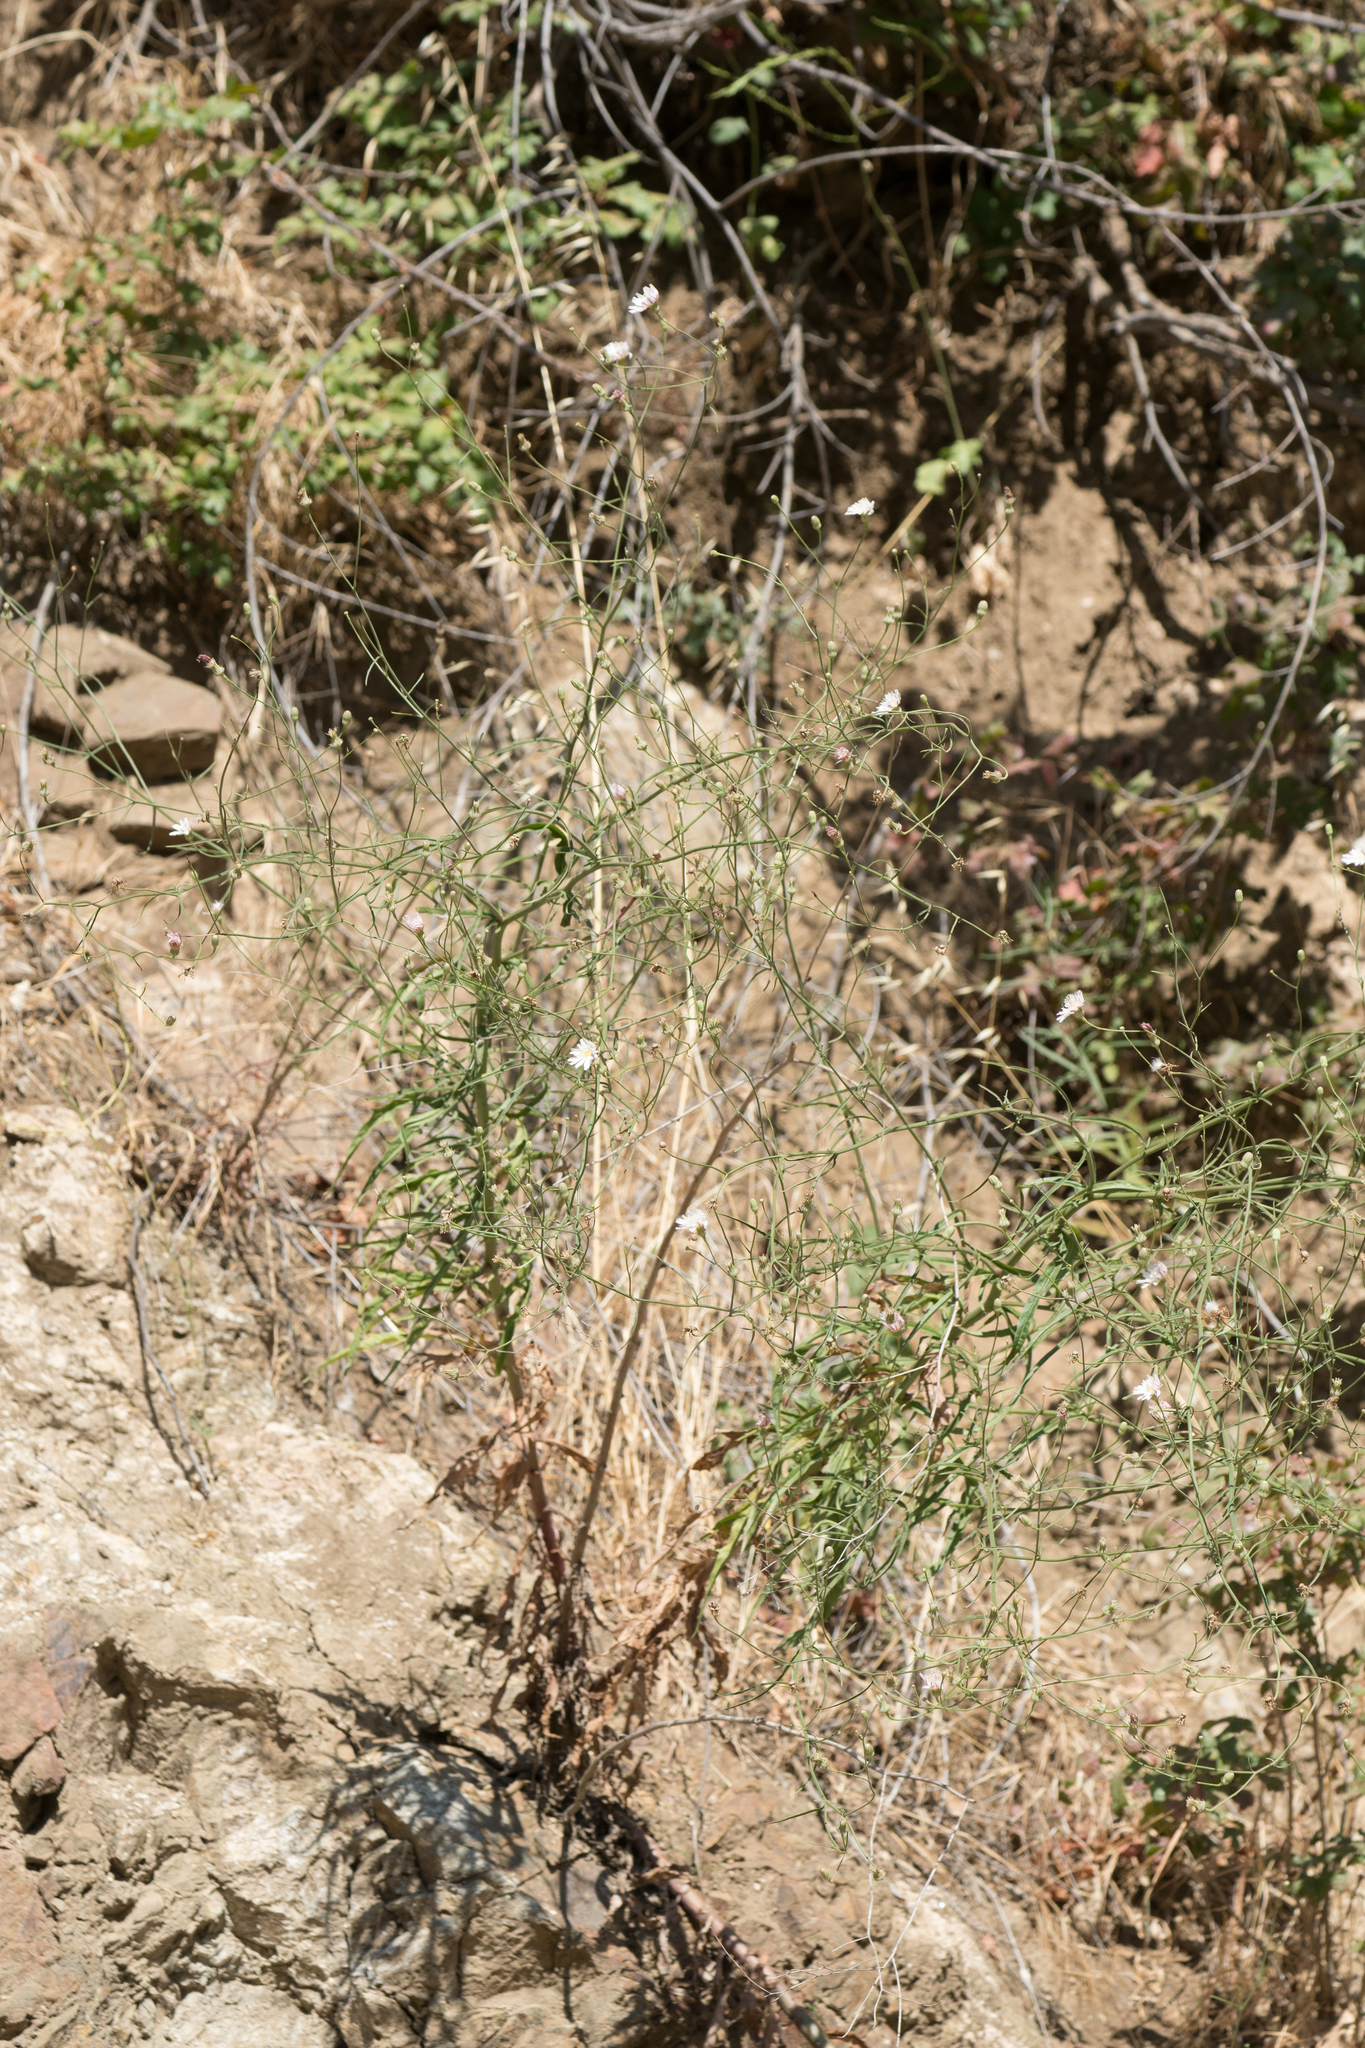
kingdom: Plantae
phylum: Tracheophyta
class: Magnoliopsida
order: Asterales
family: Asteraceae
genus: Malacothrix
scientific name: Malacothrix saxatilis
